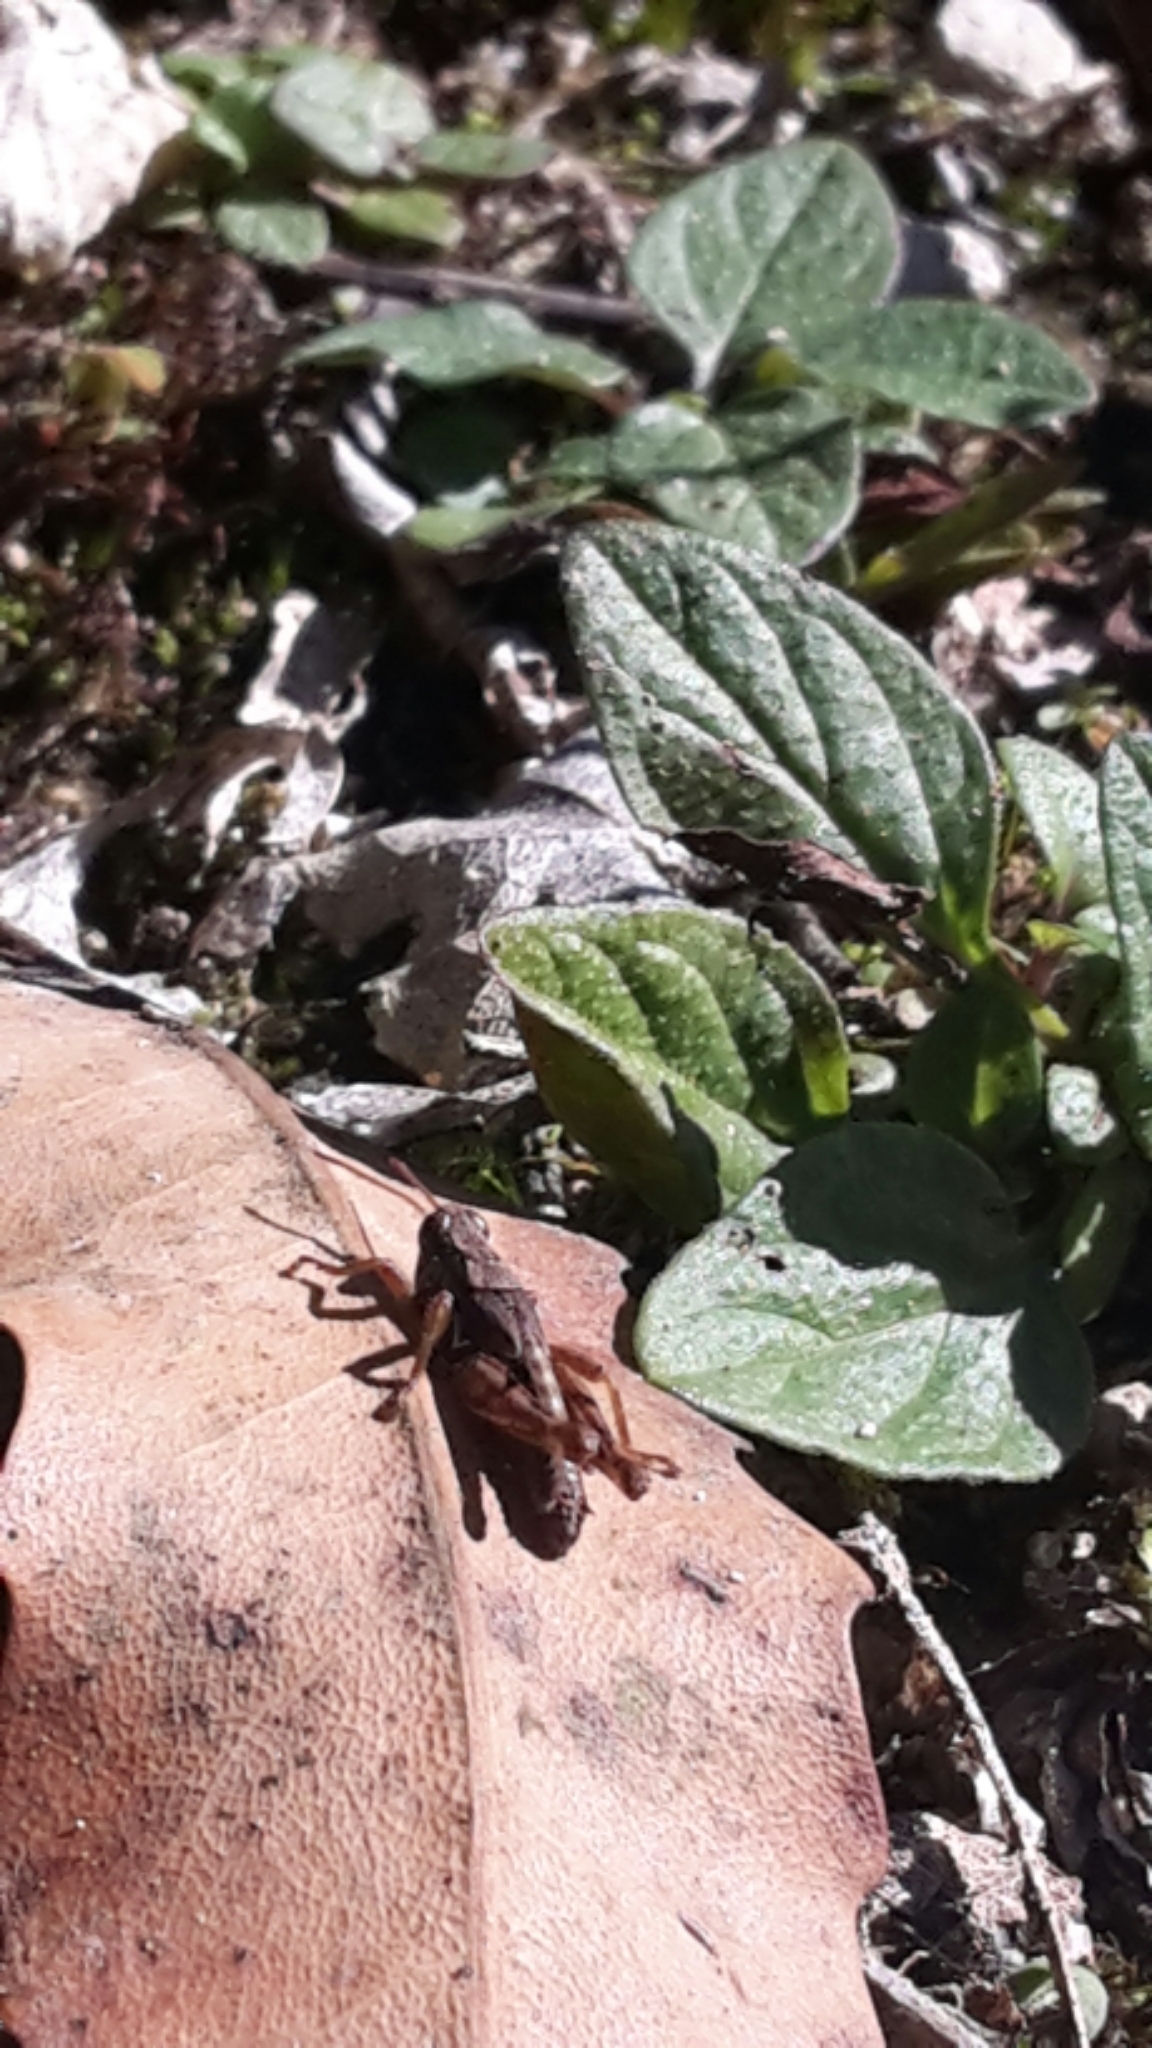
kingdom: Animalia
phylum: Arthropoda
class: Insecta
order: Orthoptera
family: Acrididae
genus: Phaulacridium
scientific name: Phaulacridium marginale
